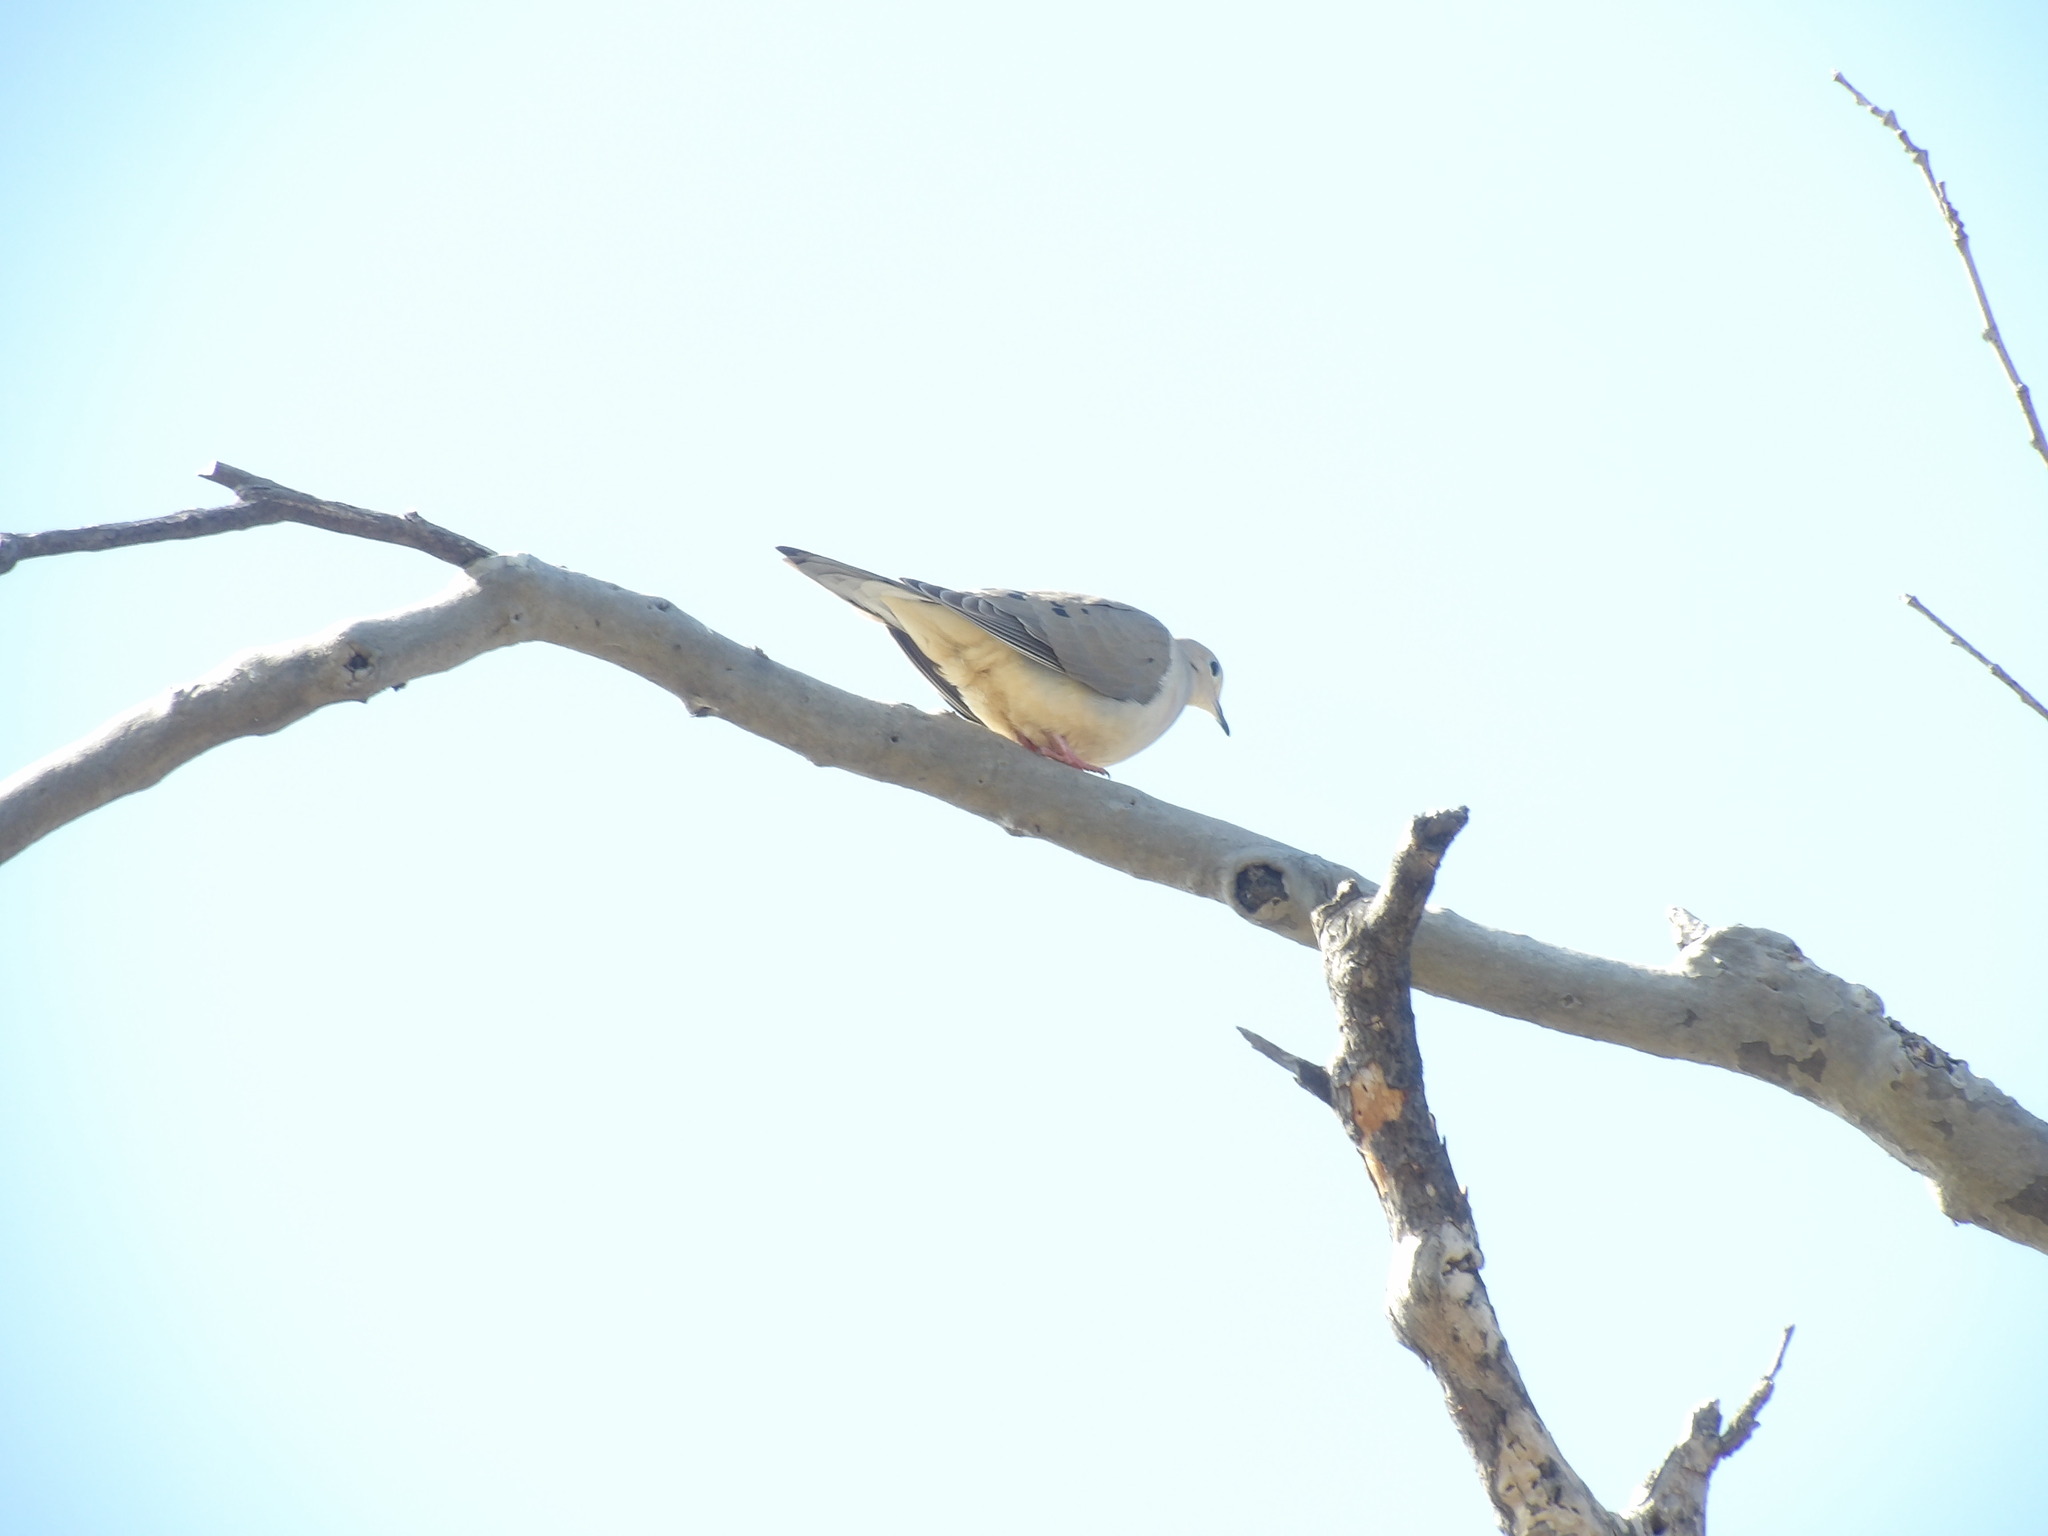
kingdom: Animalia
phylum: Chordata
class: Aves
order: Columbiformes
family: Columbidae
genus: Zenaida
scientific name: Zenaida macroura
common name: Mourning dove
